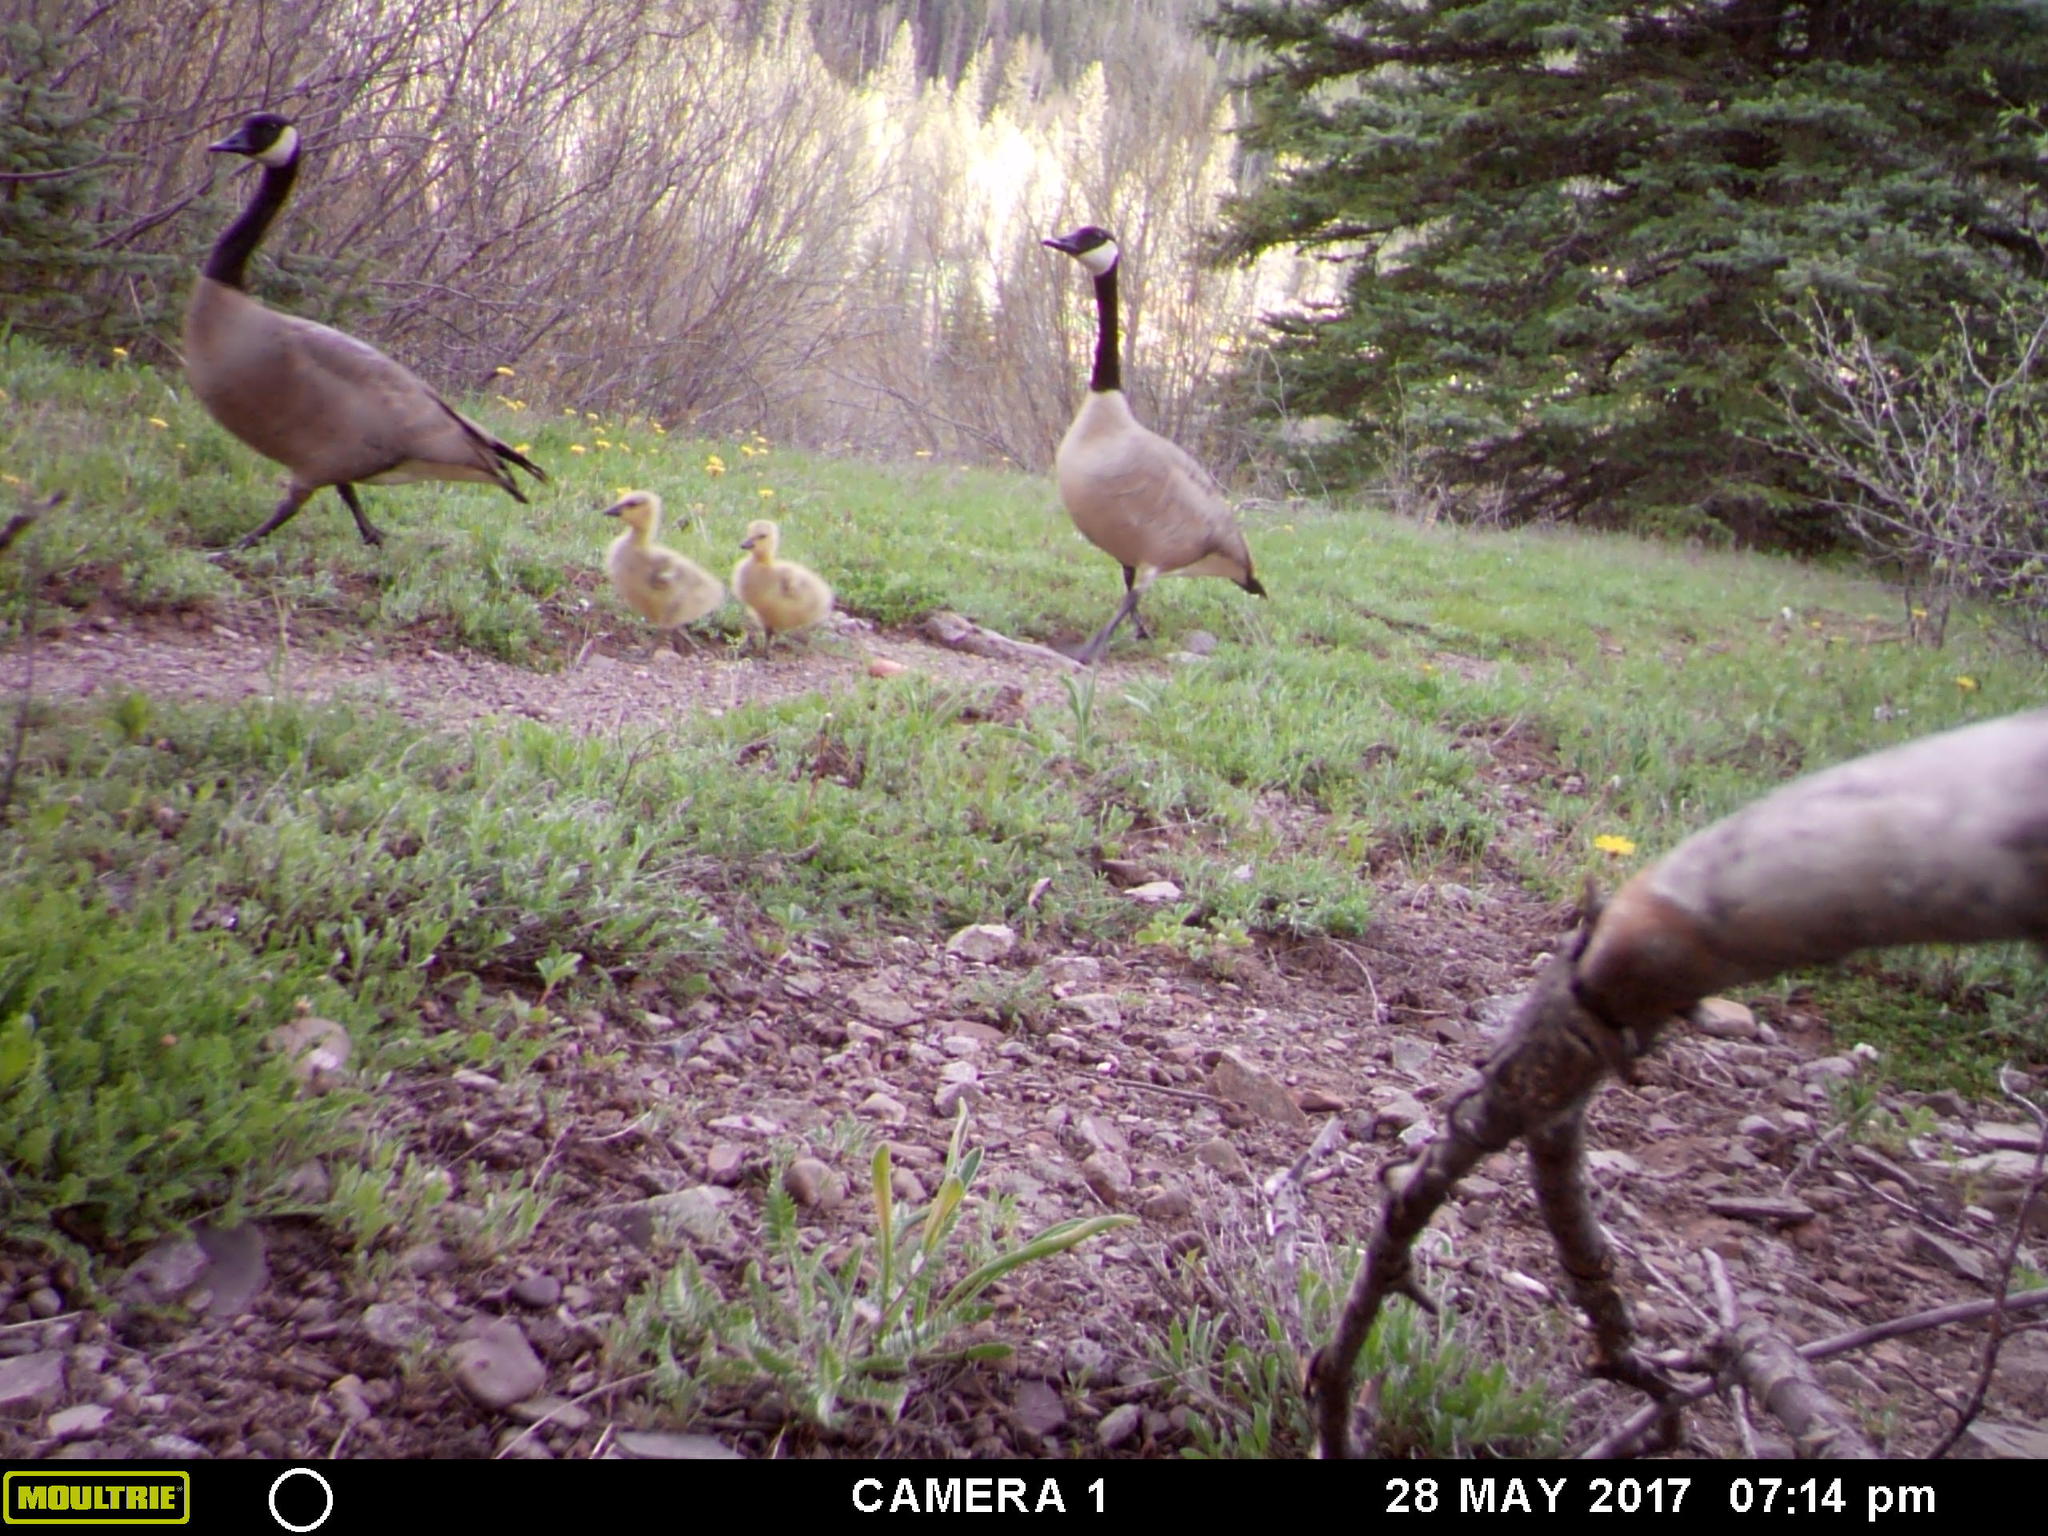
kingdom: Animalia
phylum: Chordata
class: Aves
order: Anseriformes
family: Anatidae
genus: Branta
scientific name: Branta canadensis
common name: Canada goose
